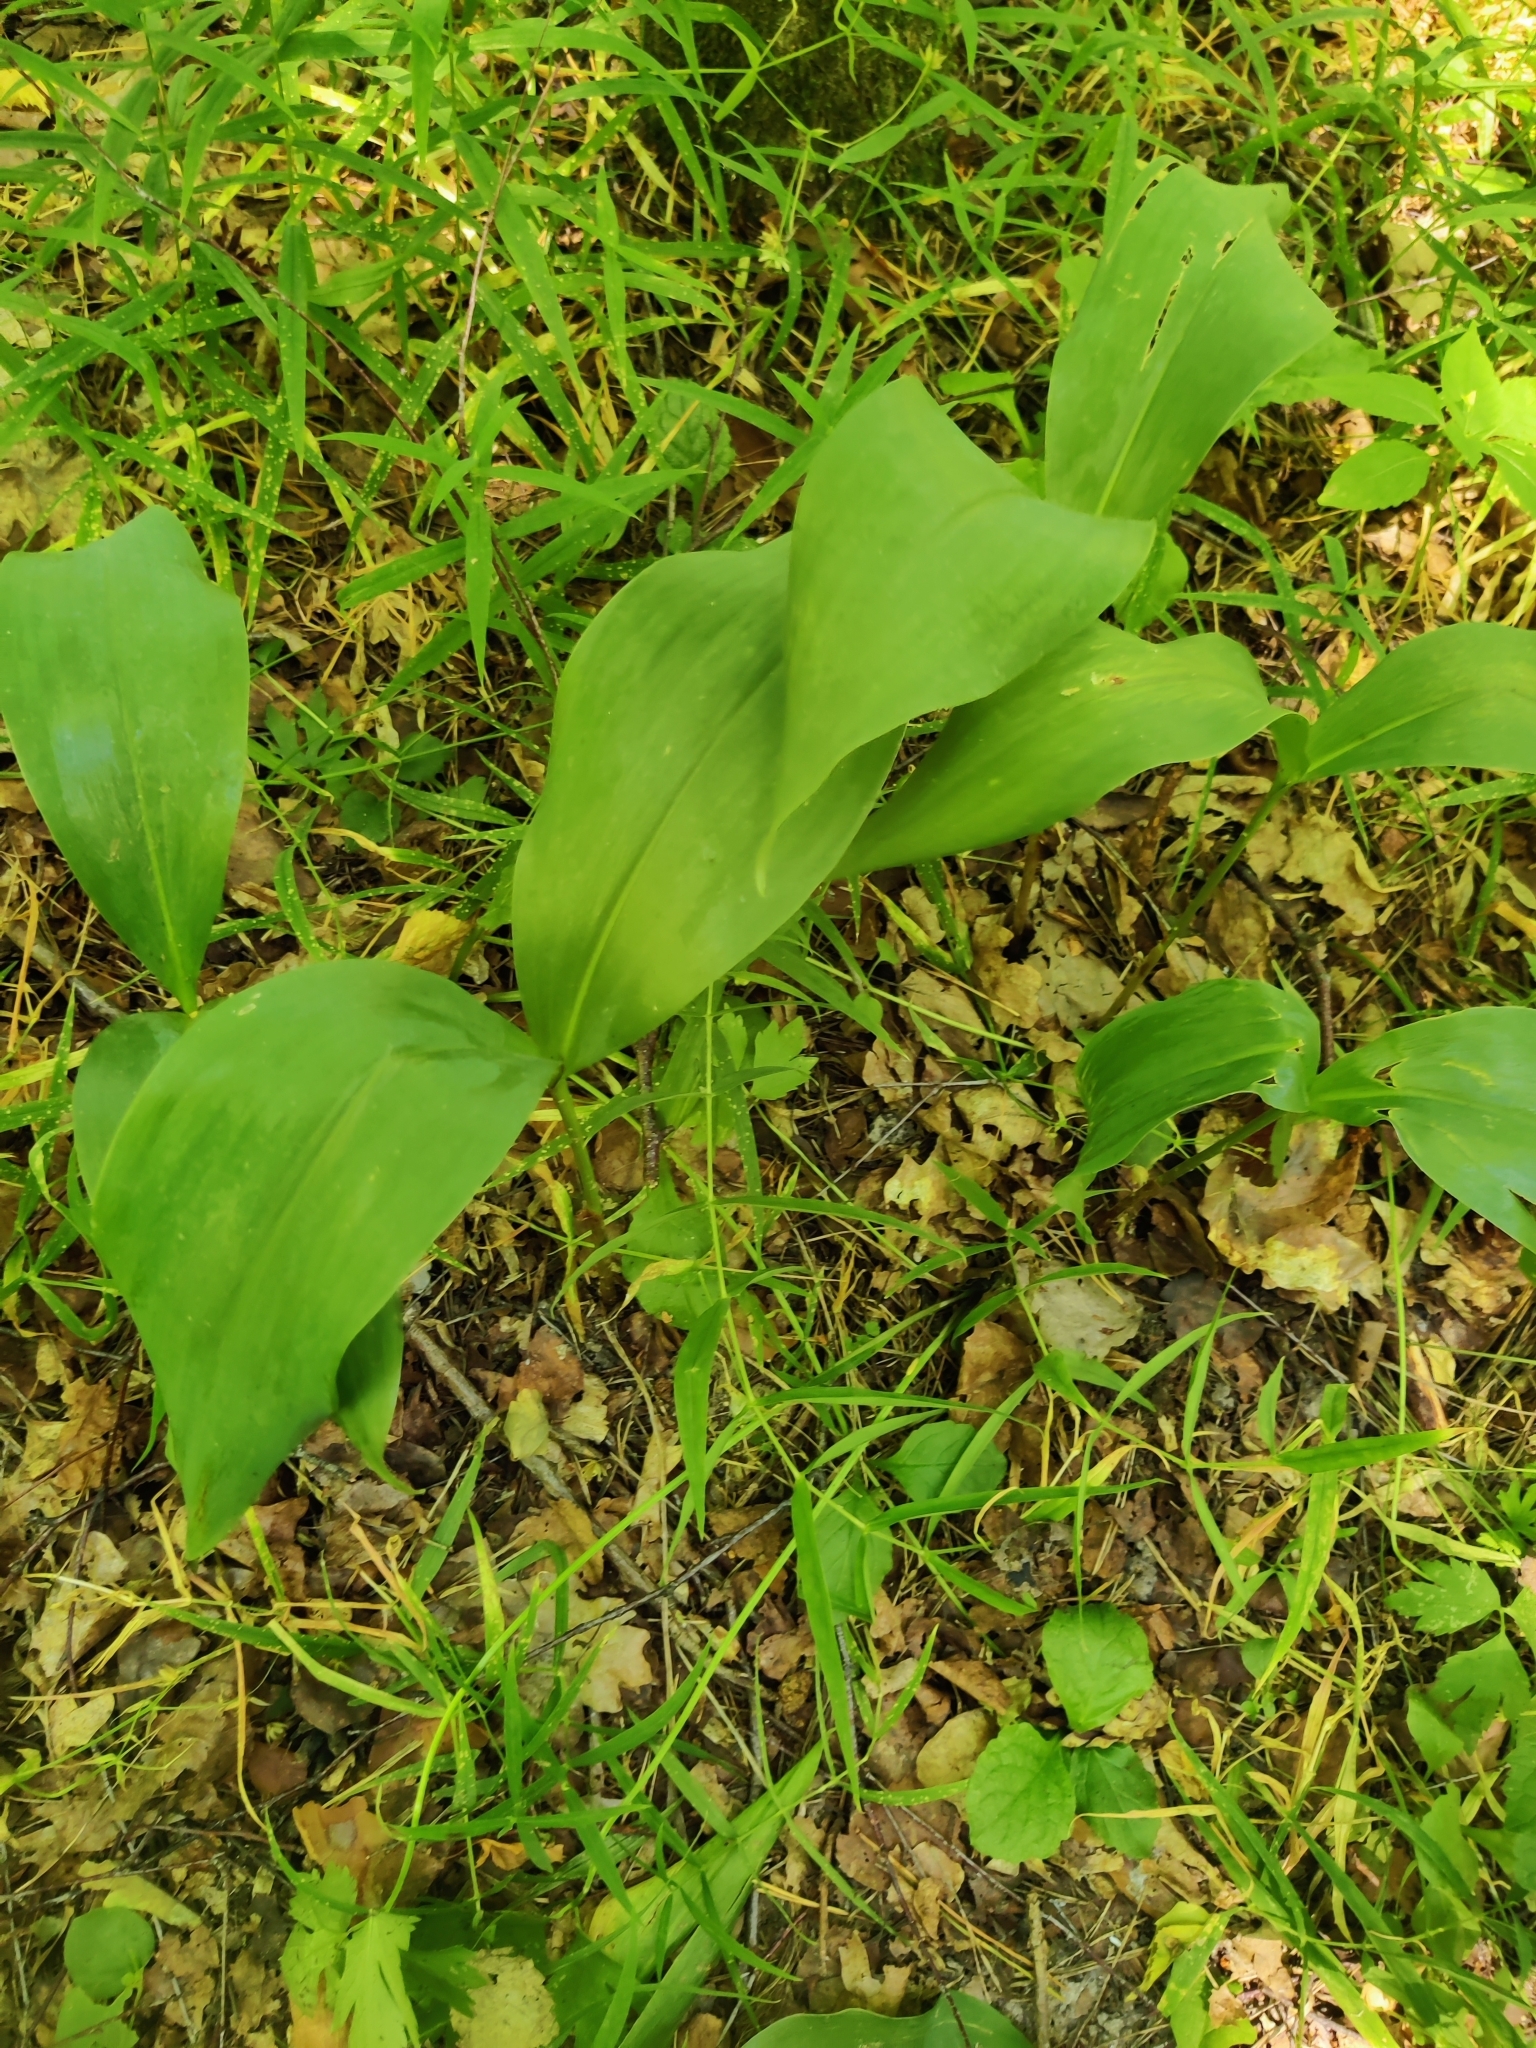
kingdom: Plantae
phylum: Tracheophyta
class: Liliopsida
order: Asparagales
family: Asparagaceae
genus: Convallaria
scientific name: Convallaria majalis
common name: Lily-of-the-valley
